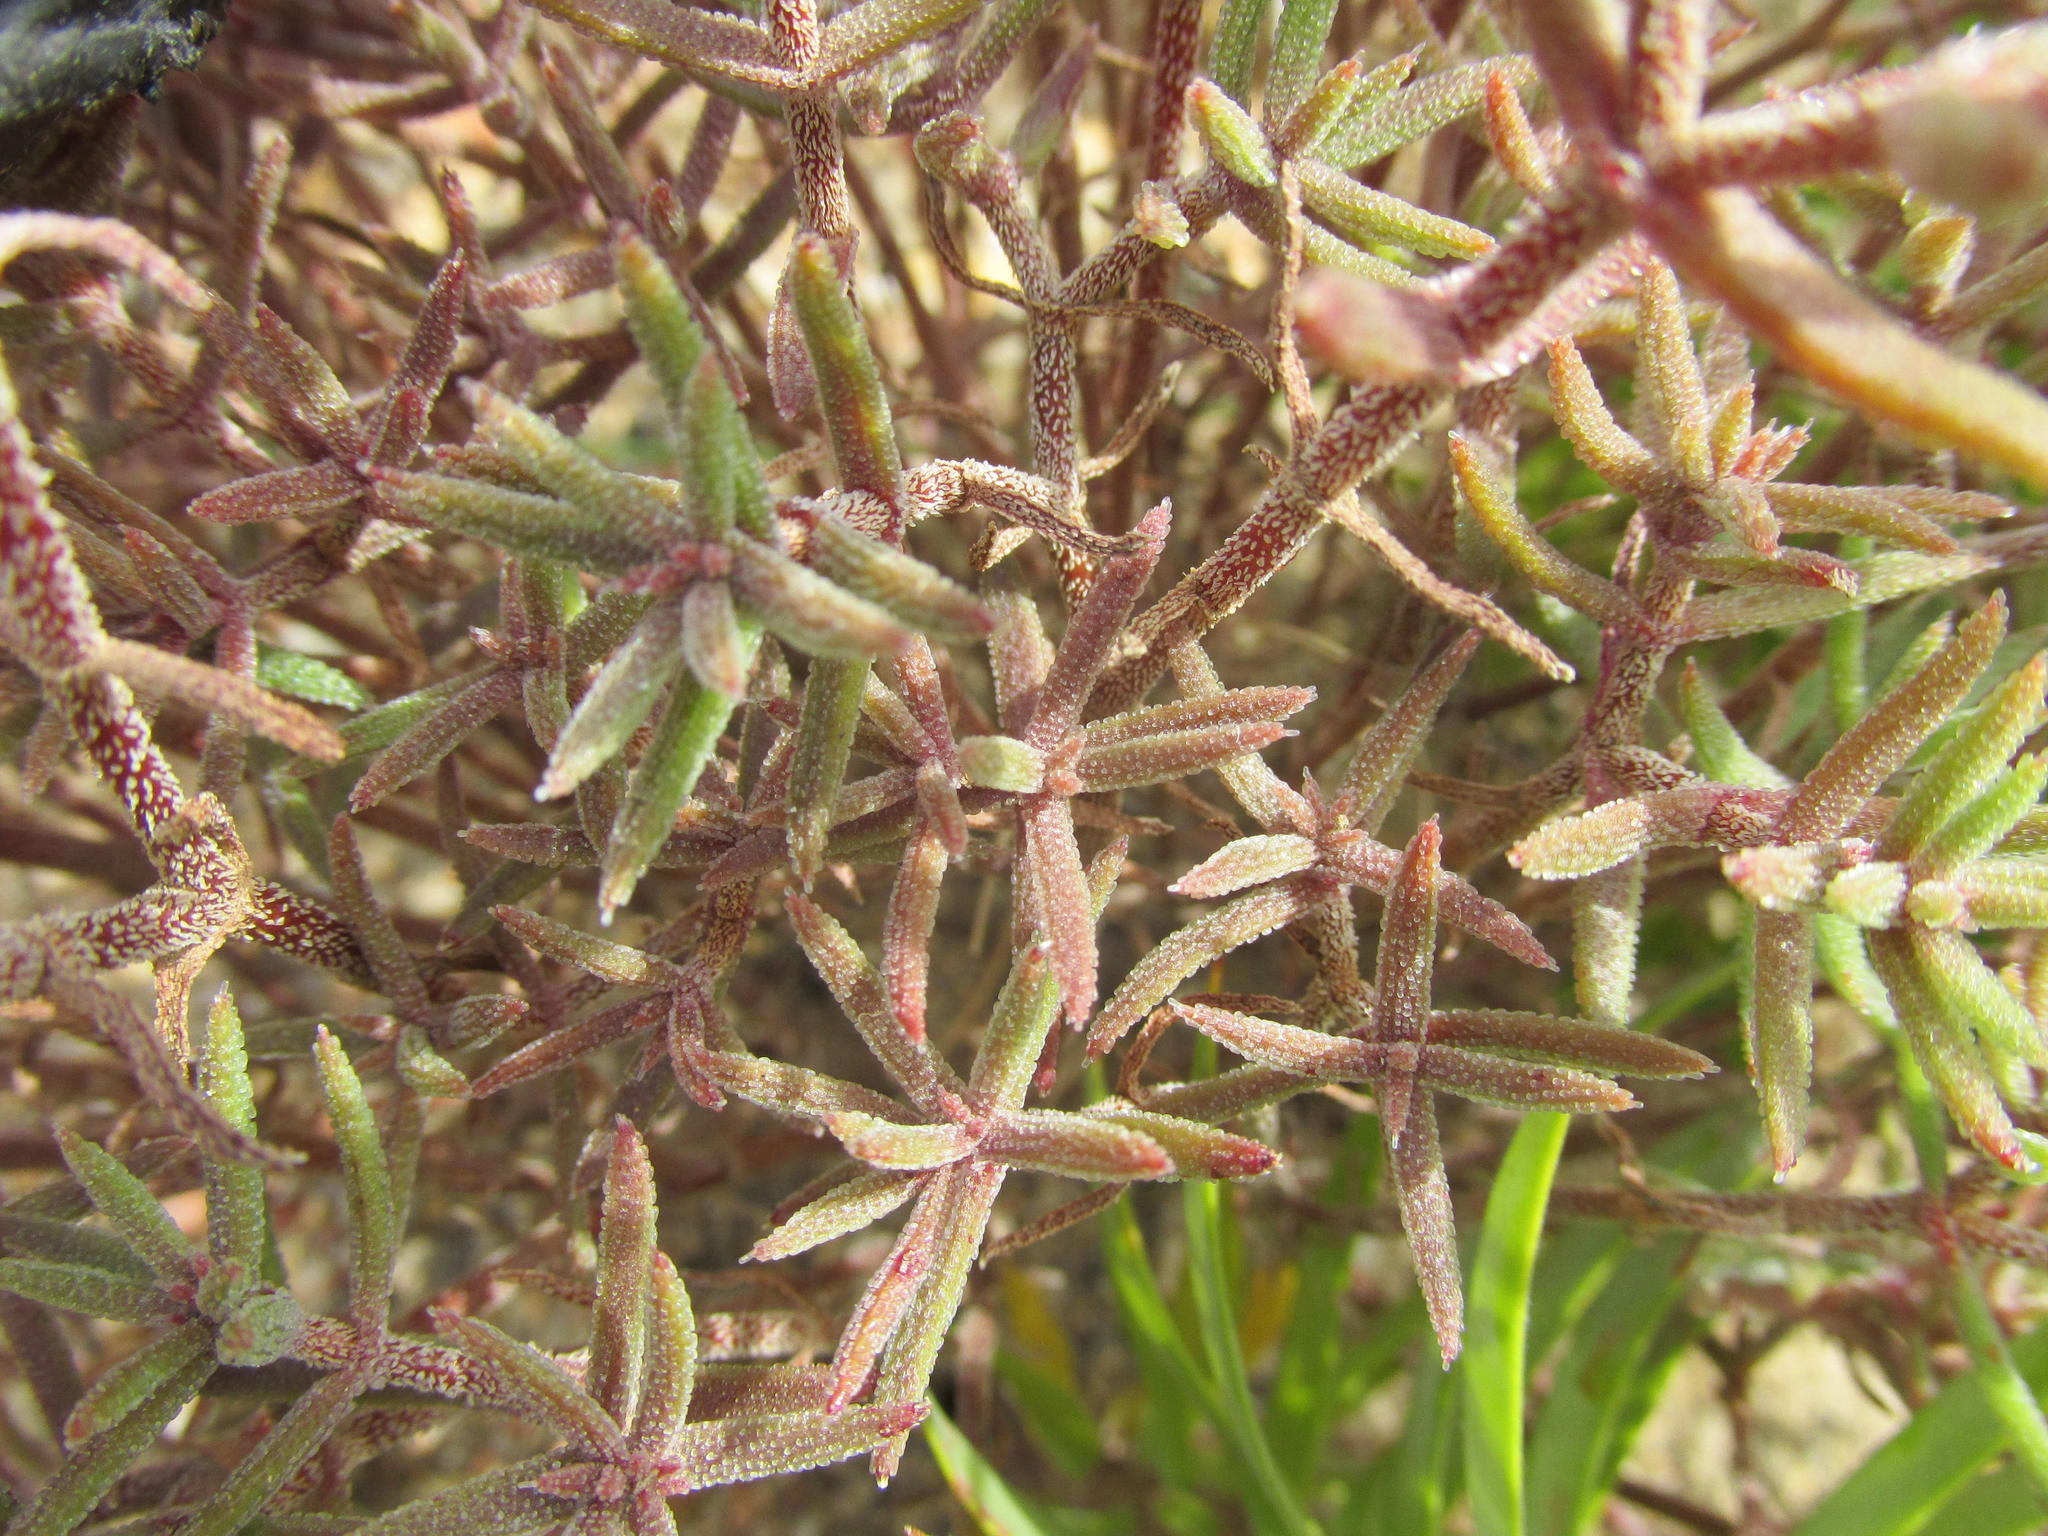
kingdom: Plantae
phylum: Tracheophyta
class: Magnoliopsida
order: Saxifragales
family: Crassulaceae
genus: Crassula
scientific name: Crassula pruinosa
